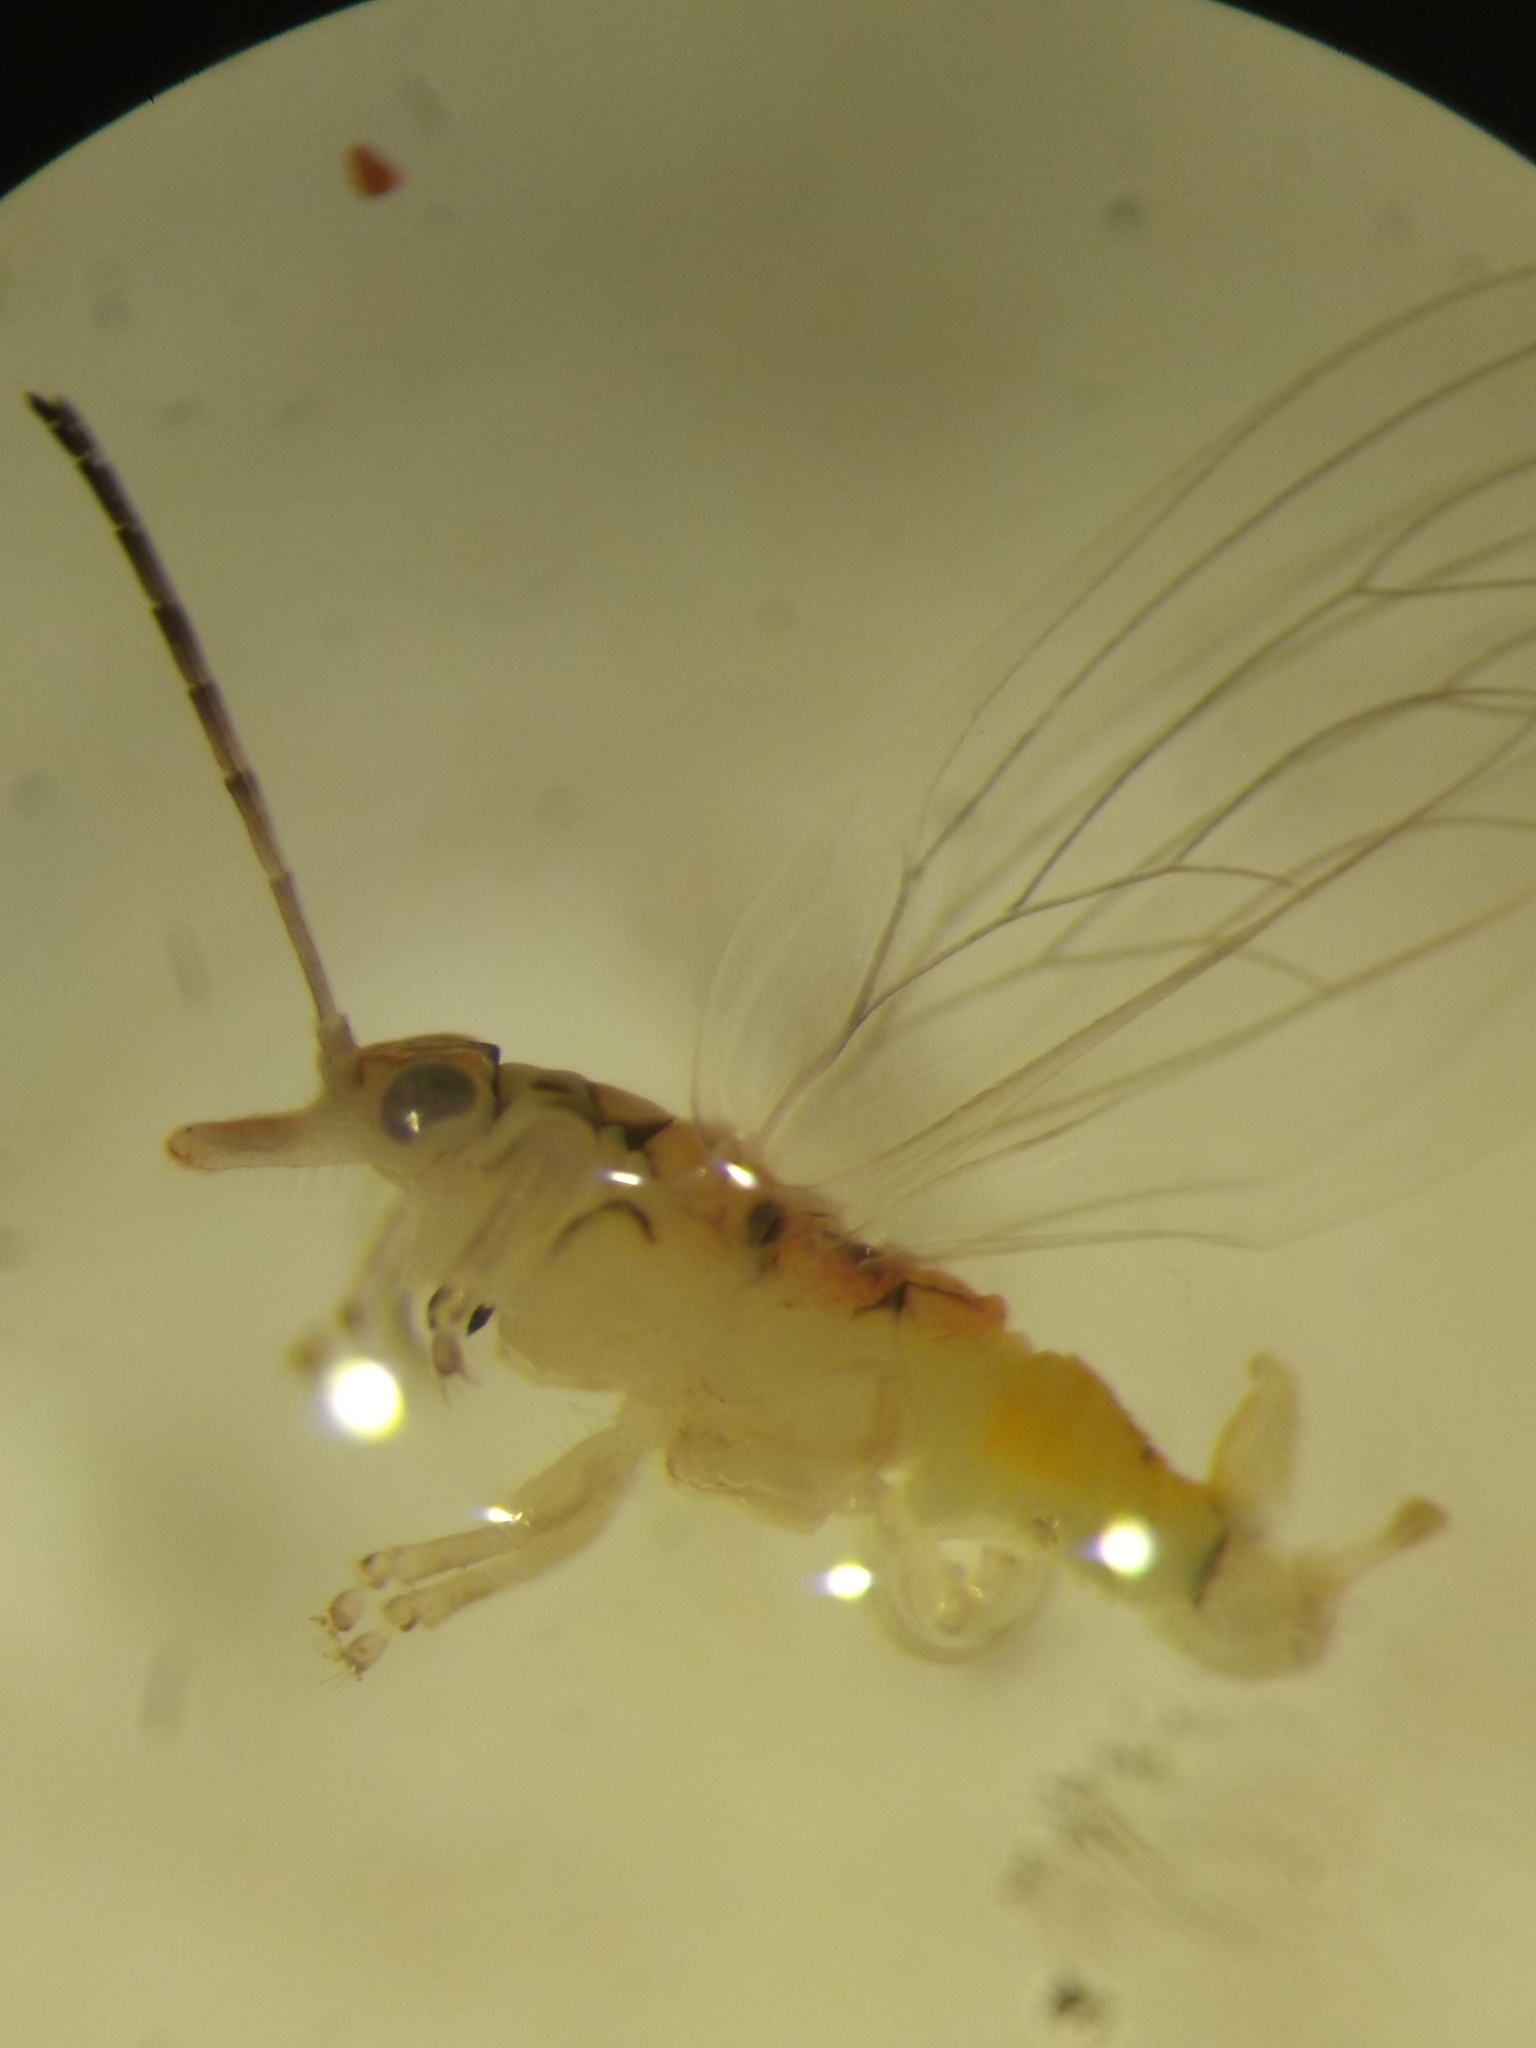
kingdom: Animalia
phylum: Arthropoda
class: Insecta
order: Hemiptera
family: Aphalaridae
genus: Glycaspis
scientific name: Glycaspis brimblecombei
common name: Red gum lerp psyllid
